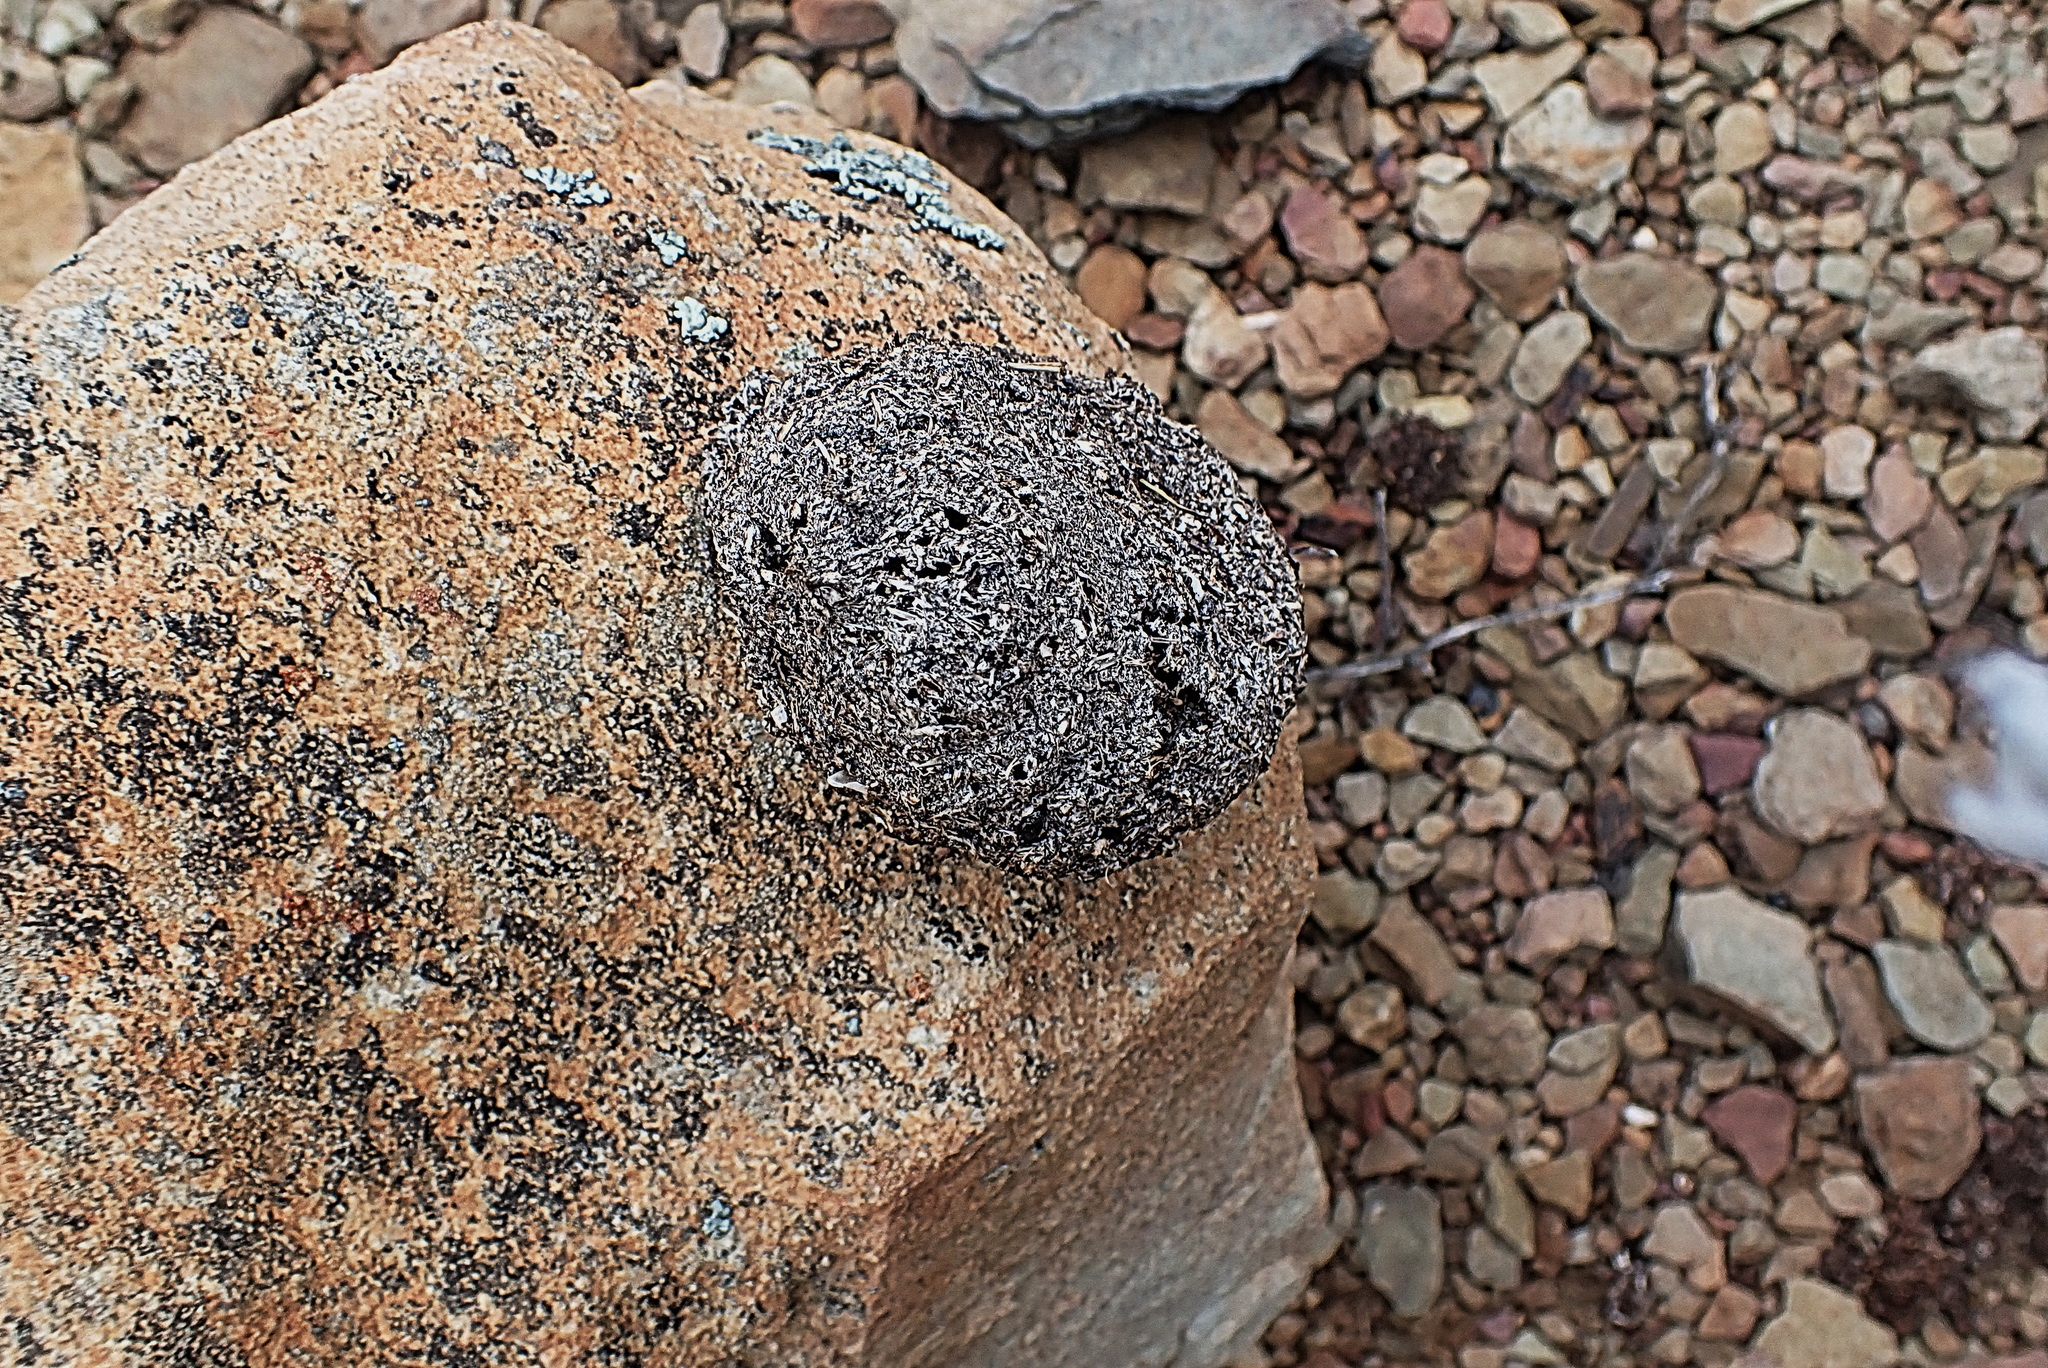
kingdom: Animalia
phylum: Chordata
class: Mammalia
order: Primates
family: Cercopithecidae
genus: Papio
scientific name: Papio ursinus
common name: Chacma baboon
